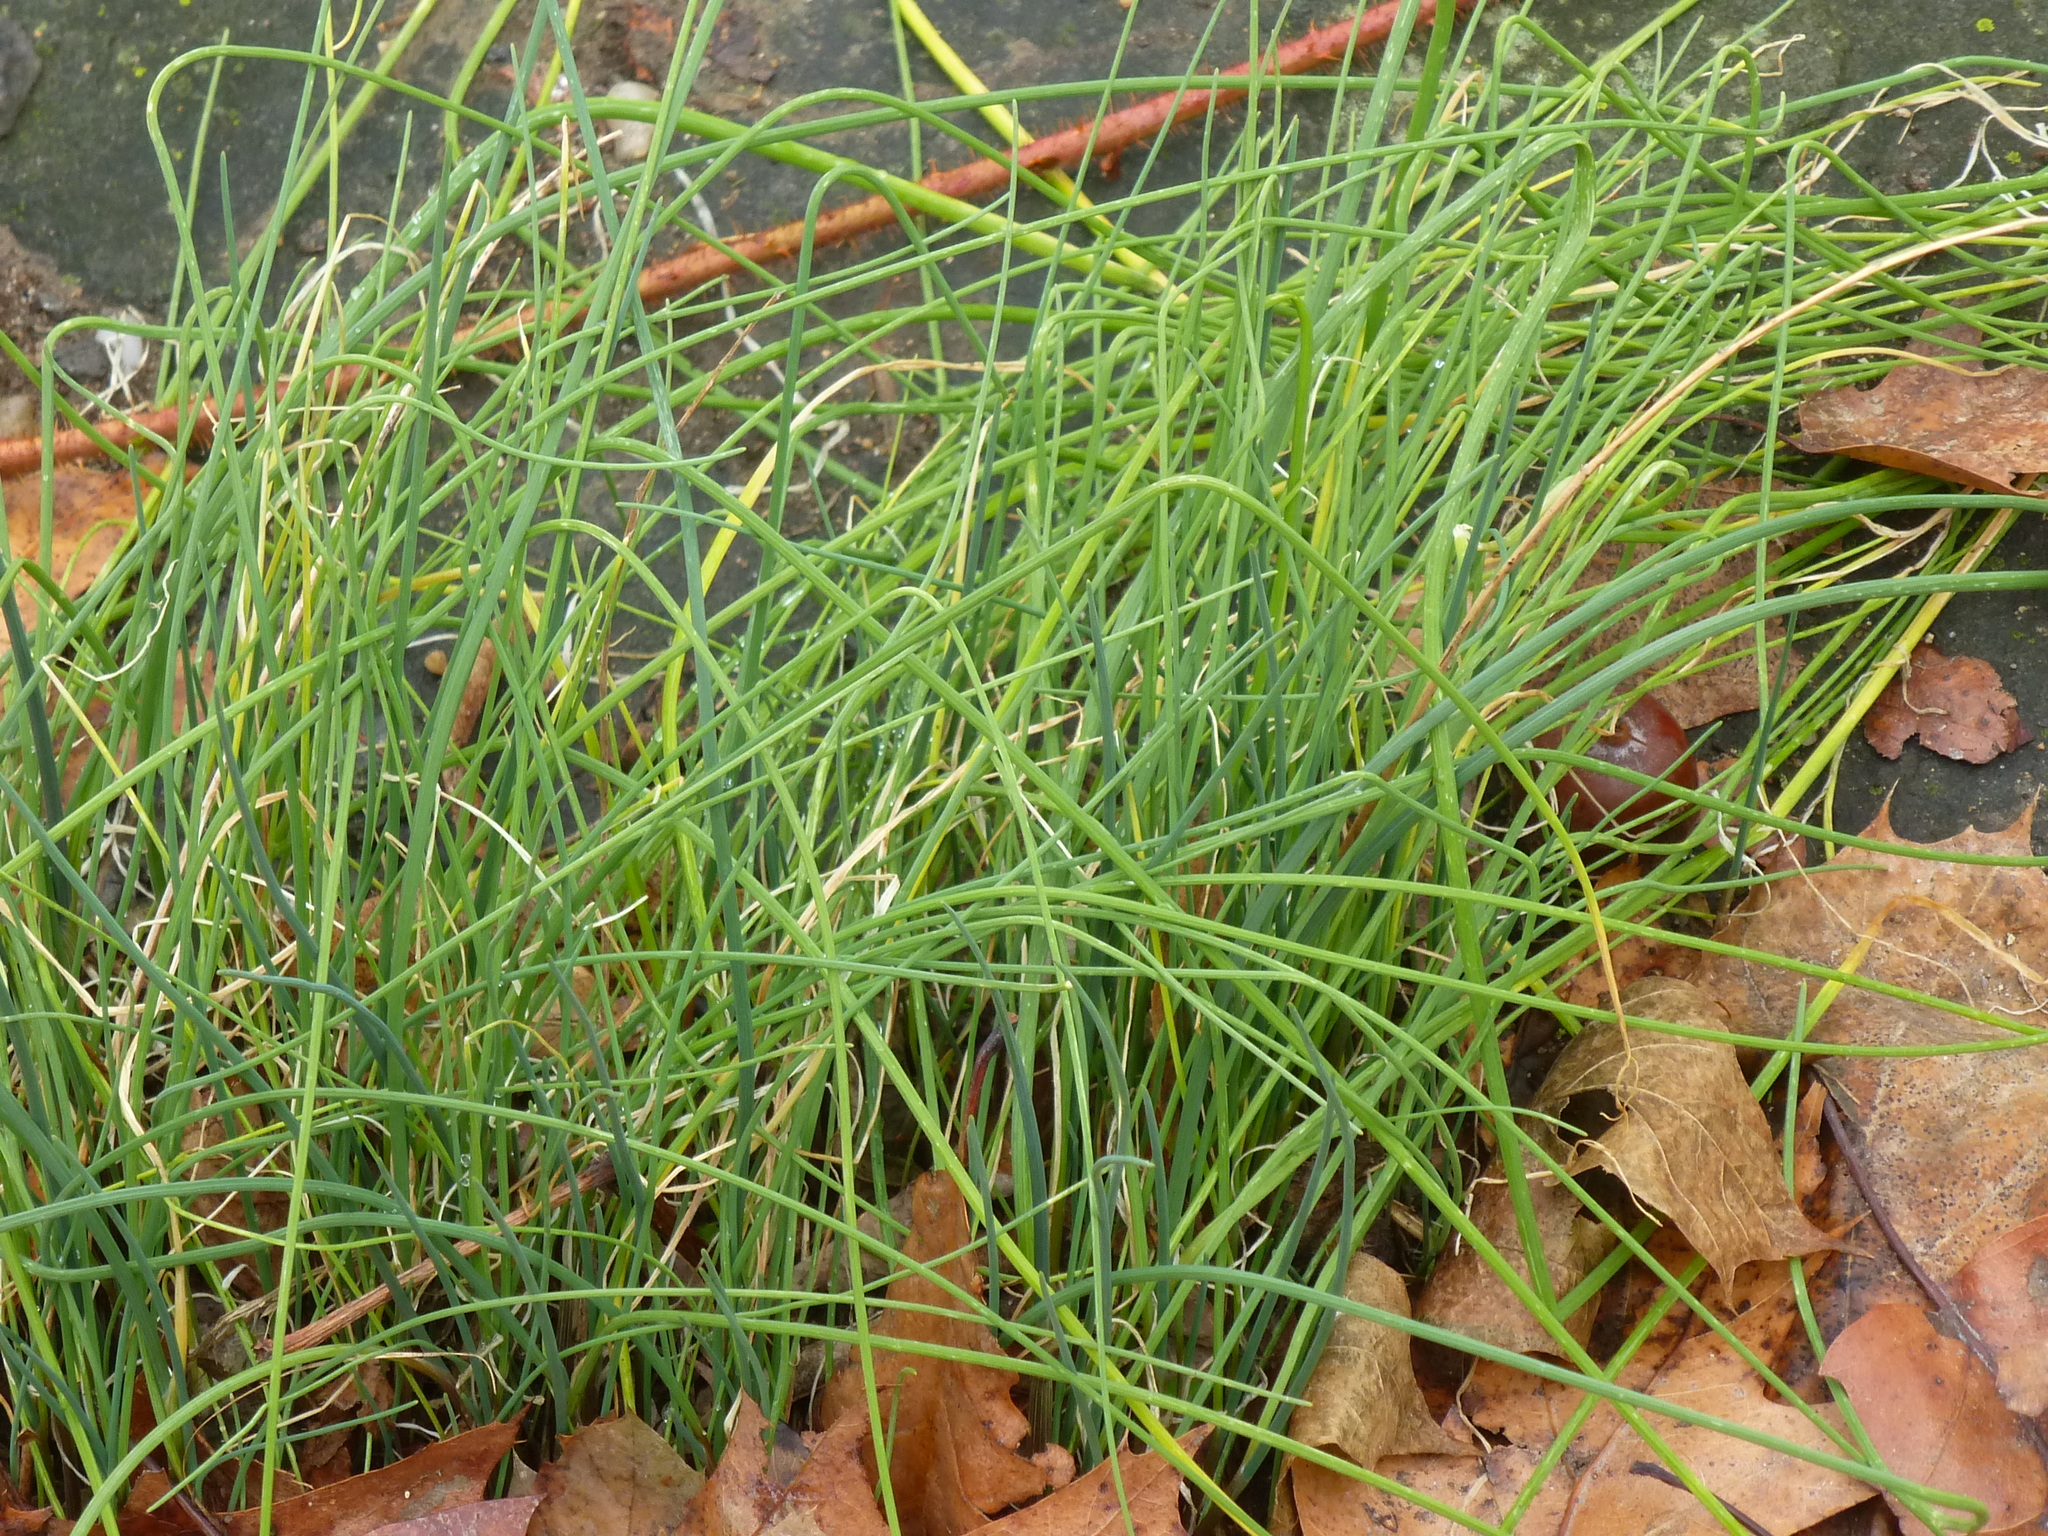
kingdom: Plantae
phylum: Tracheophyta
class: Liliopsida
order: Asparagales
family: Amaryllidaceae
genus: Allium
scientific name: Allium vineale
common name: Crow garlic
